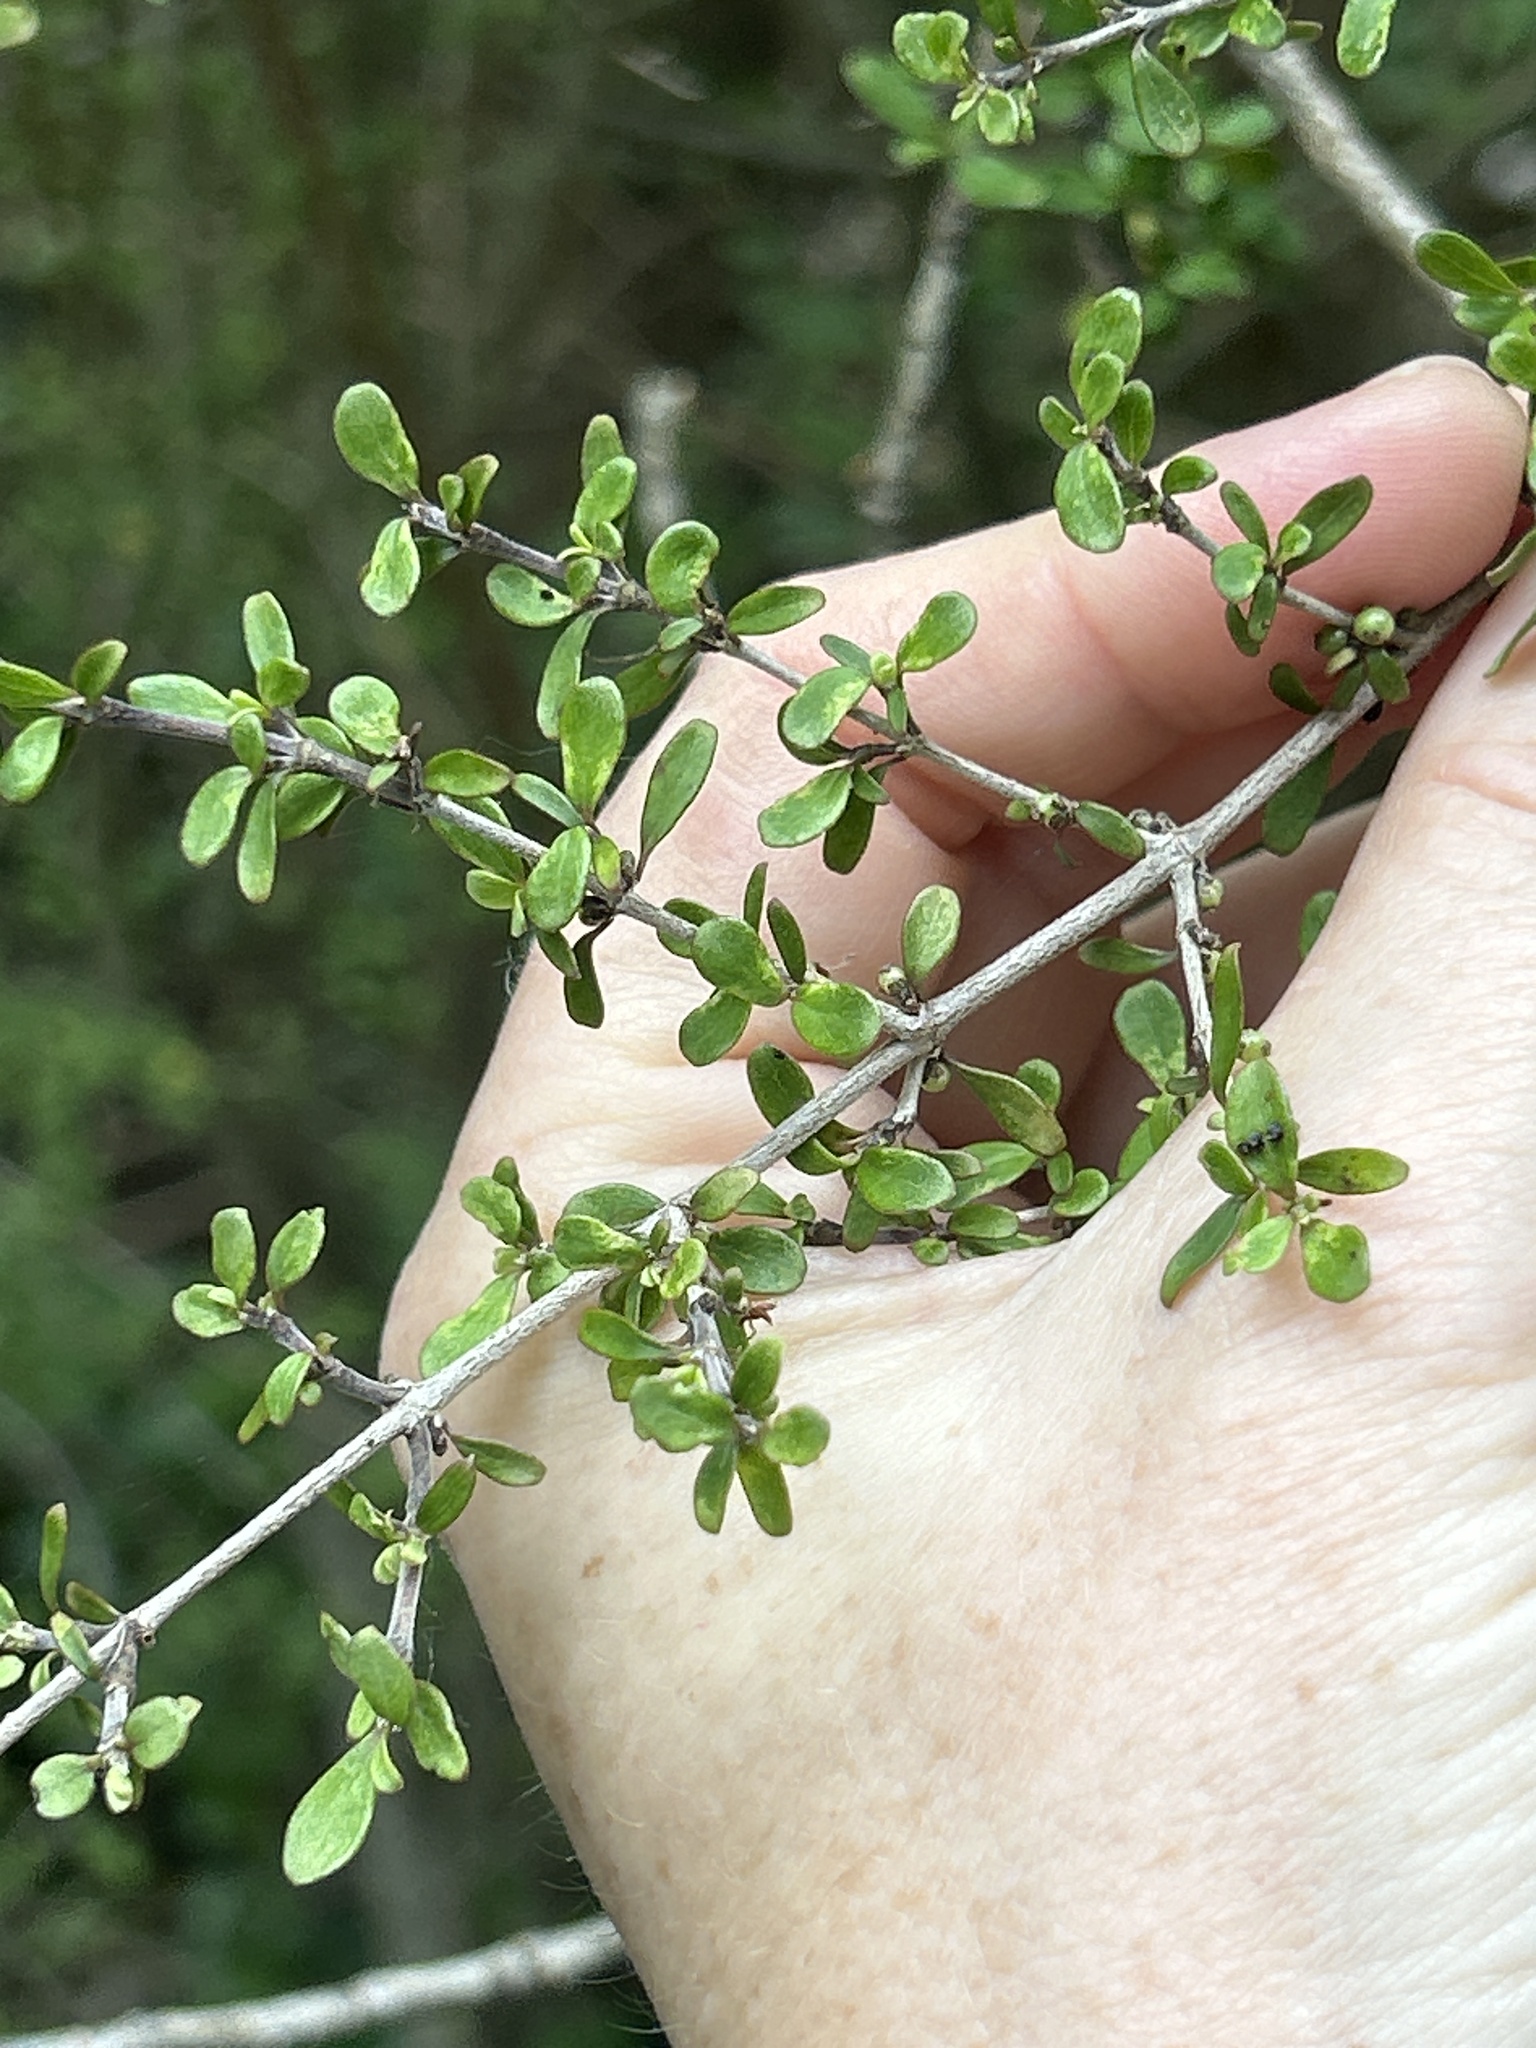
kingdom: Plantae
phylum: Tracheophyta
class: Magnoliopsida
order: Gentianales
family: Rubiaceae
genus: Coprosma
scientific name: Coprosma dumosa
